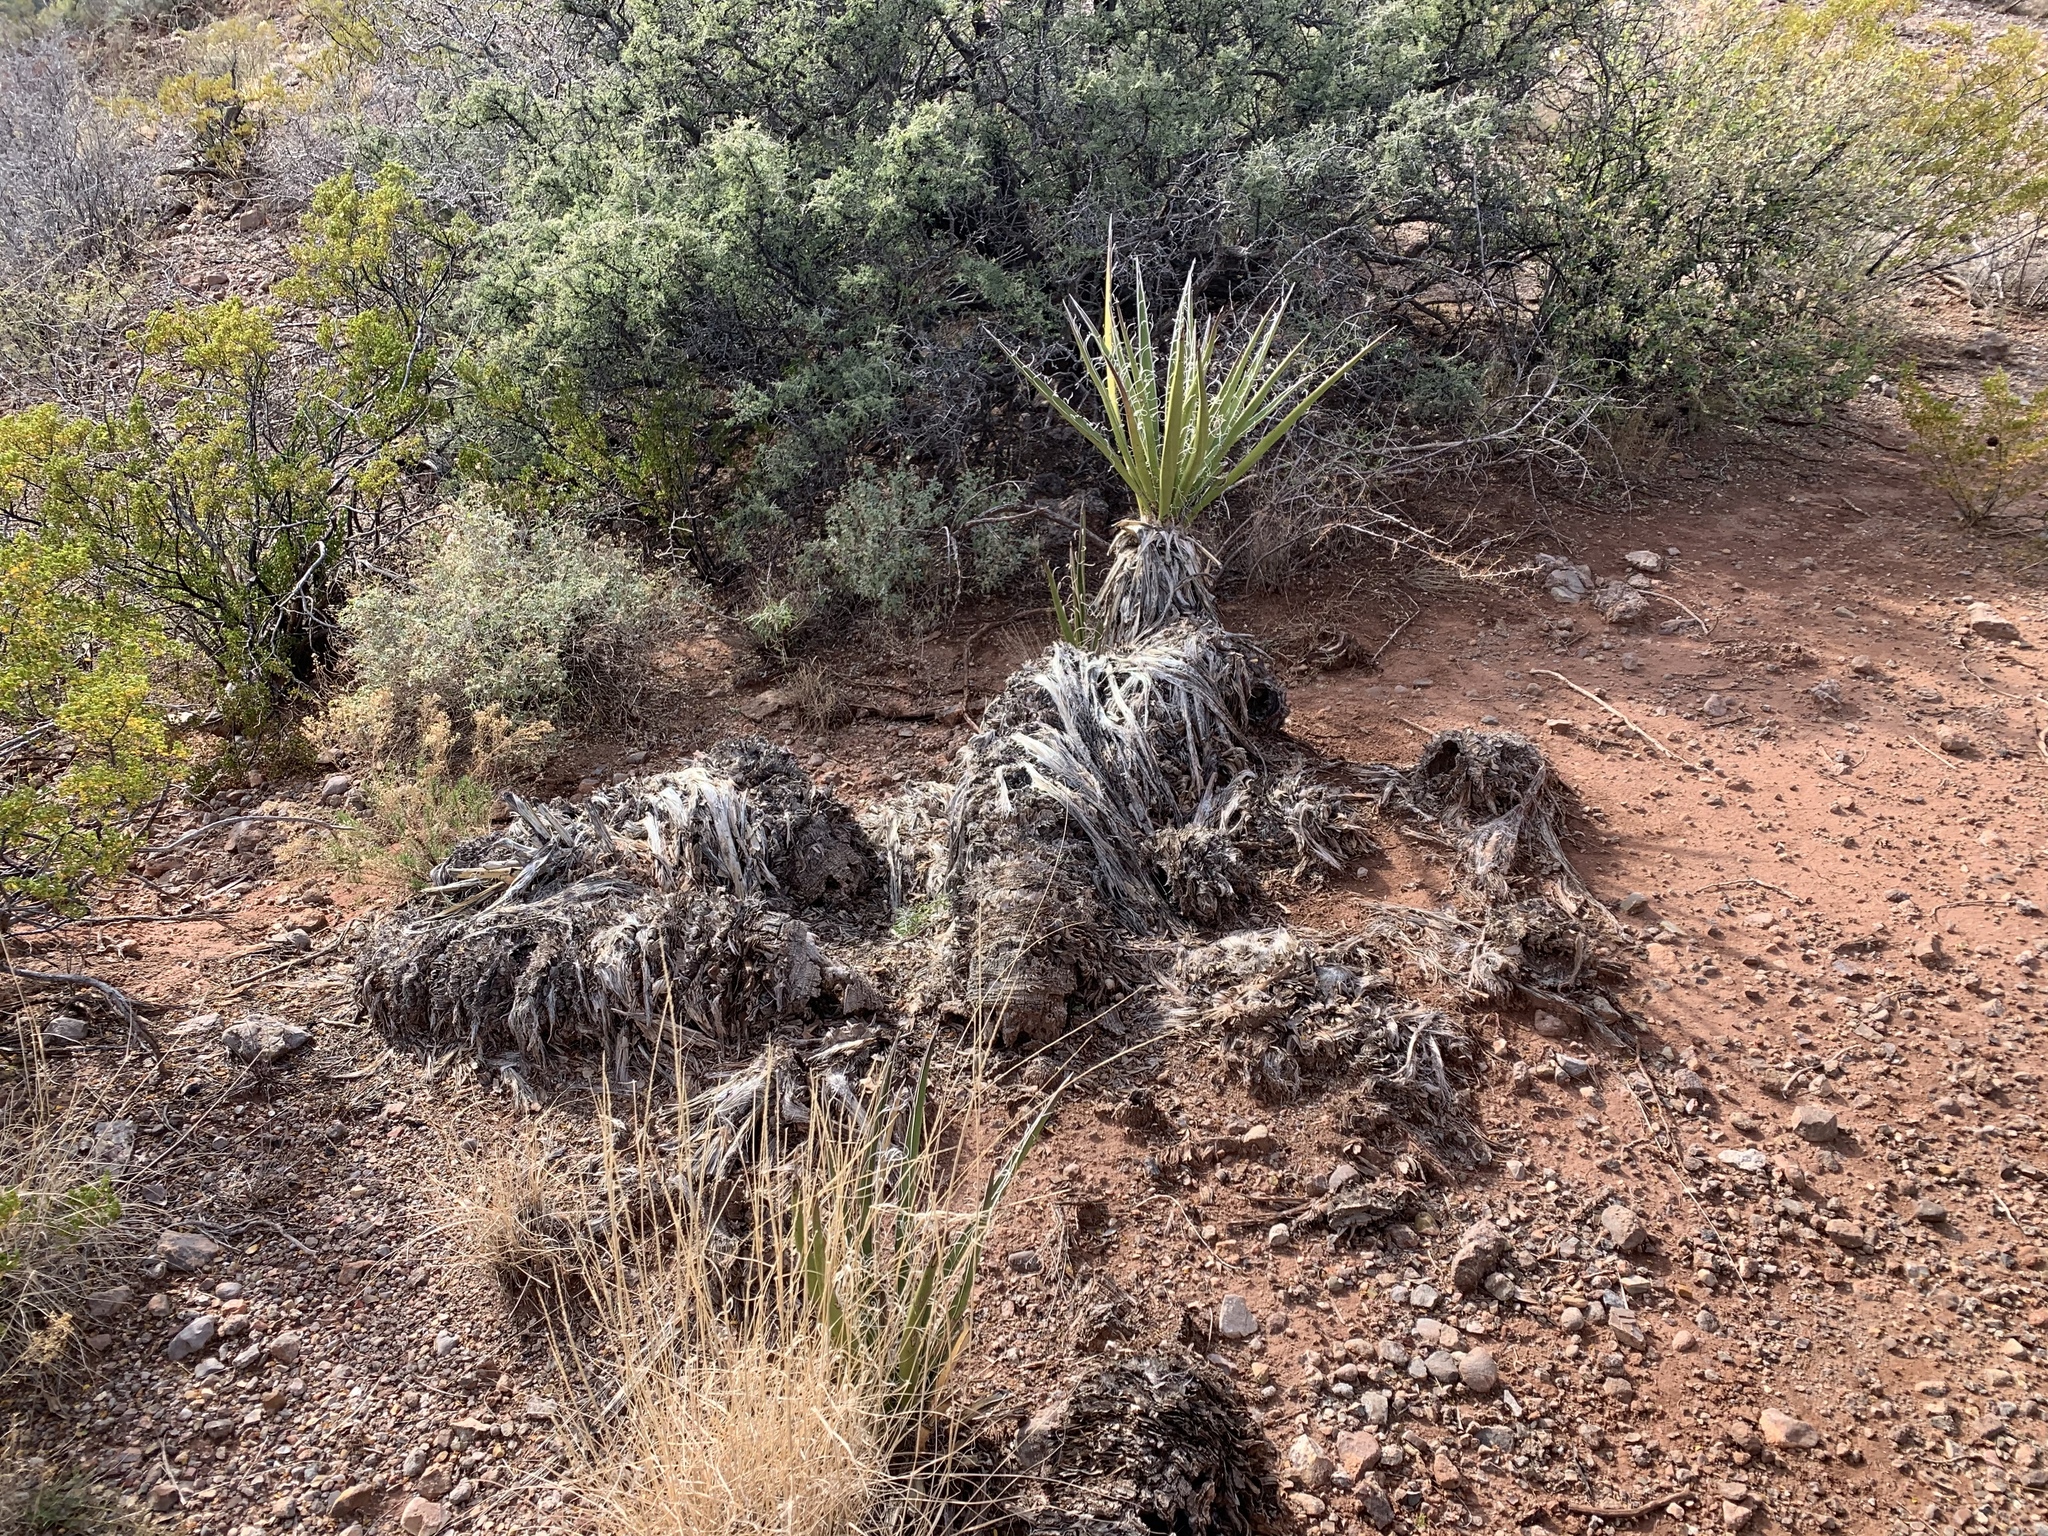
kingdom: Plantae
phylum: Tracheophyta
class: Liliopsida
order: Asparagales
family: Asparagaceae
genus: Yucca
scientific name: Yucca baccata
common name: Banana yucca
